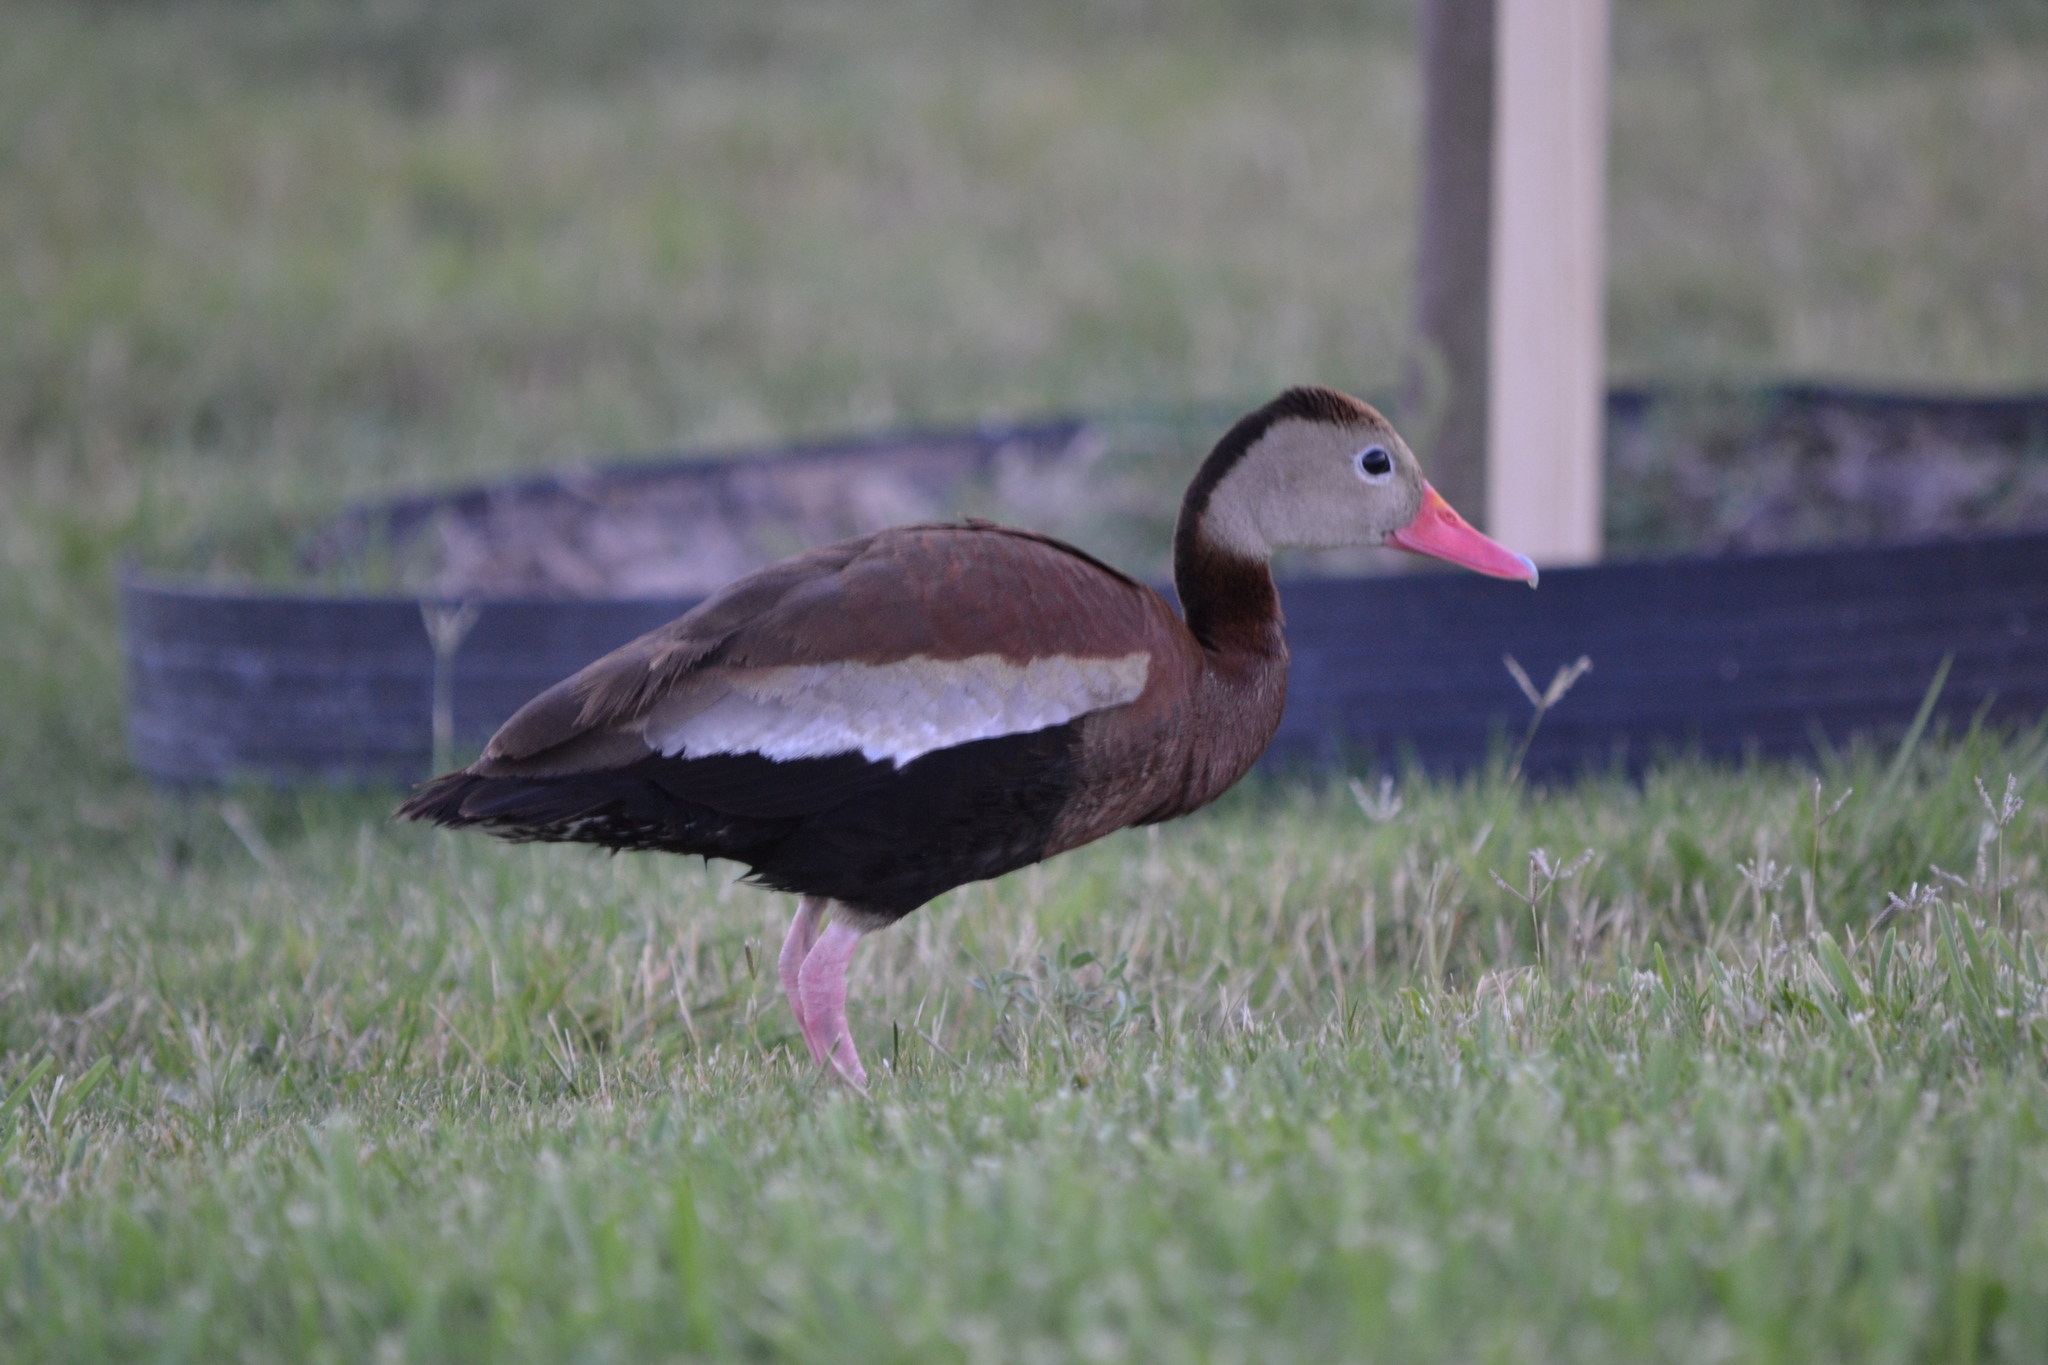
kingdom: Animalia
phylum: Chordata
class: Aves
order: Anseriformes
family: Anatidae
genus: Dendrocygna
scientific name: Dendrocygna autumnalis
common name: Black-bellied whistling duck
